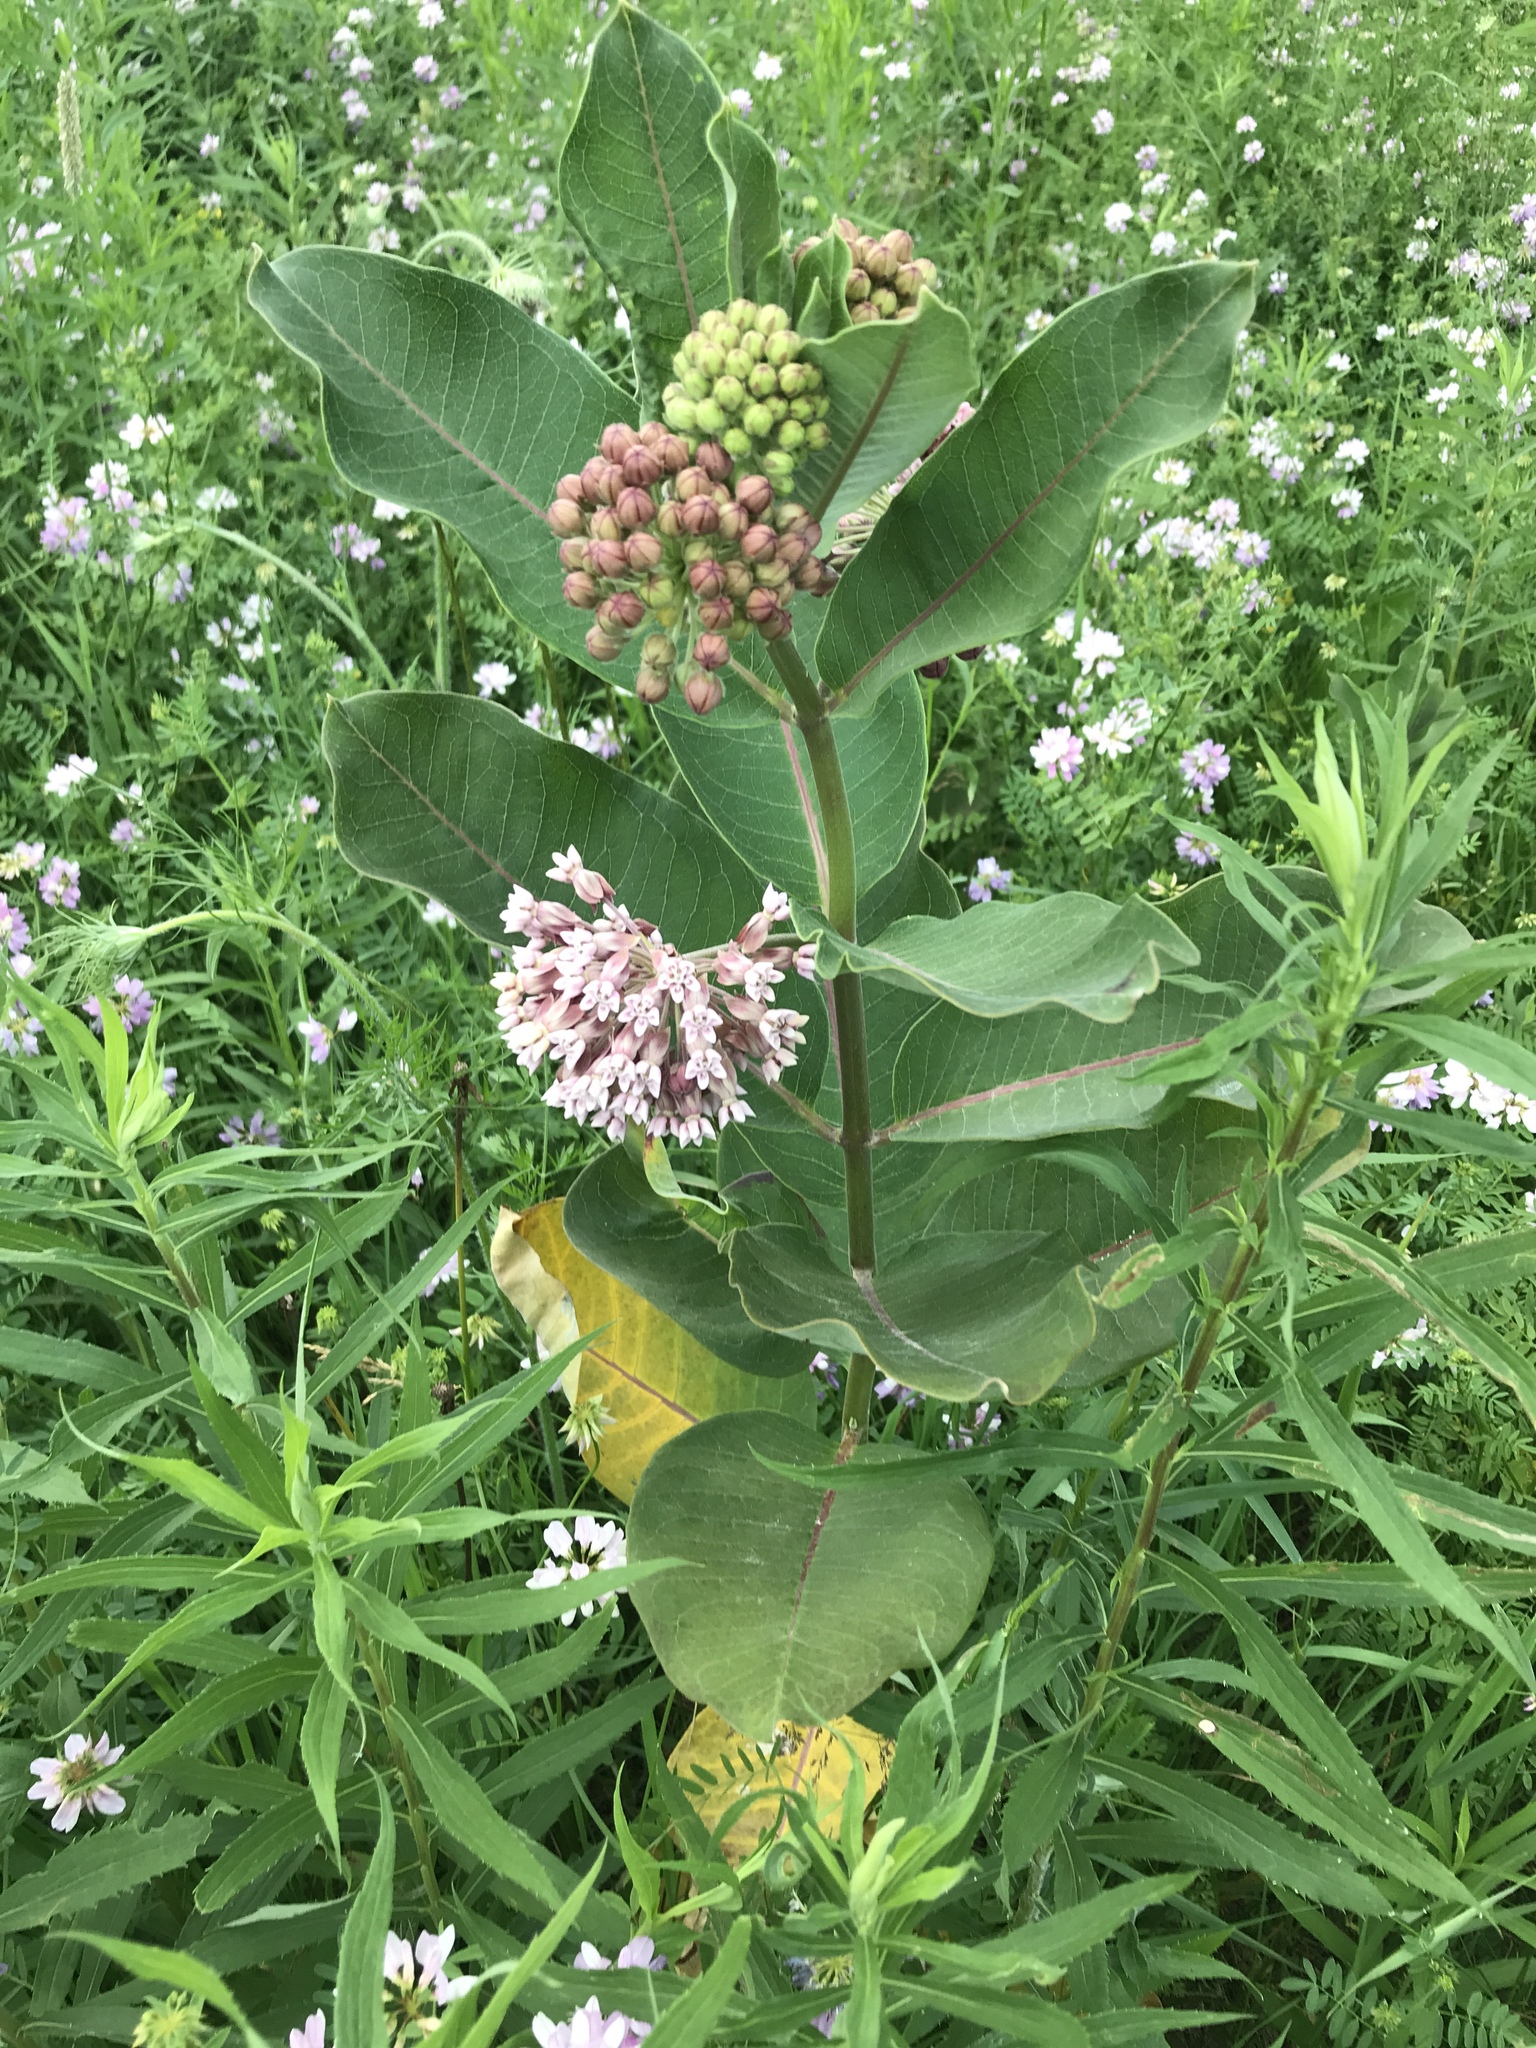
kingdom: Plantae
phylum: Tracheophyta
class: Magnoliopsida
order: Gentianales
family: Apocynaceae
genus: Asclepias
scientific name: Asclepias syriaca
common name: Common milkweed
